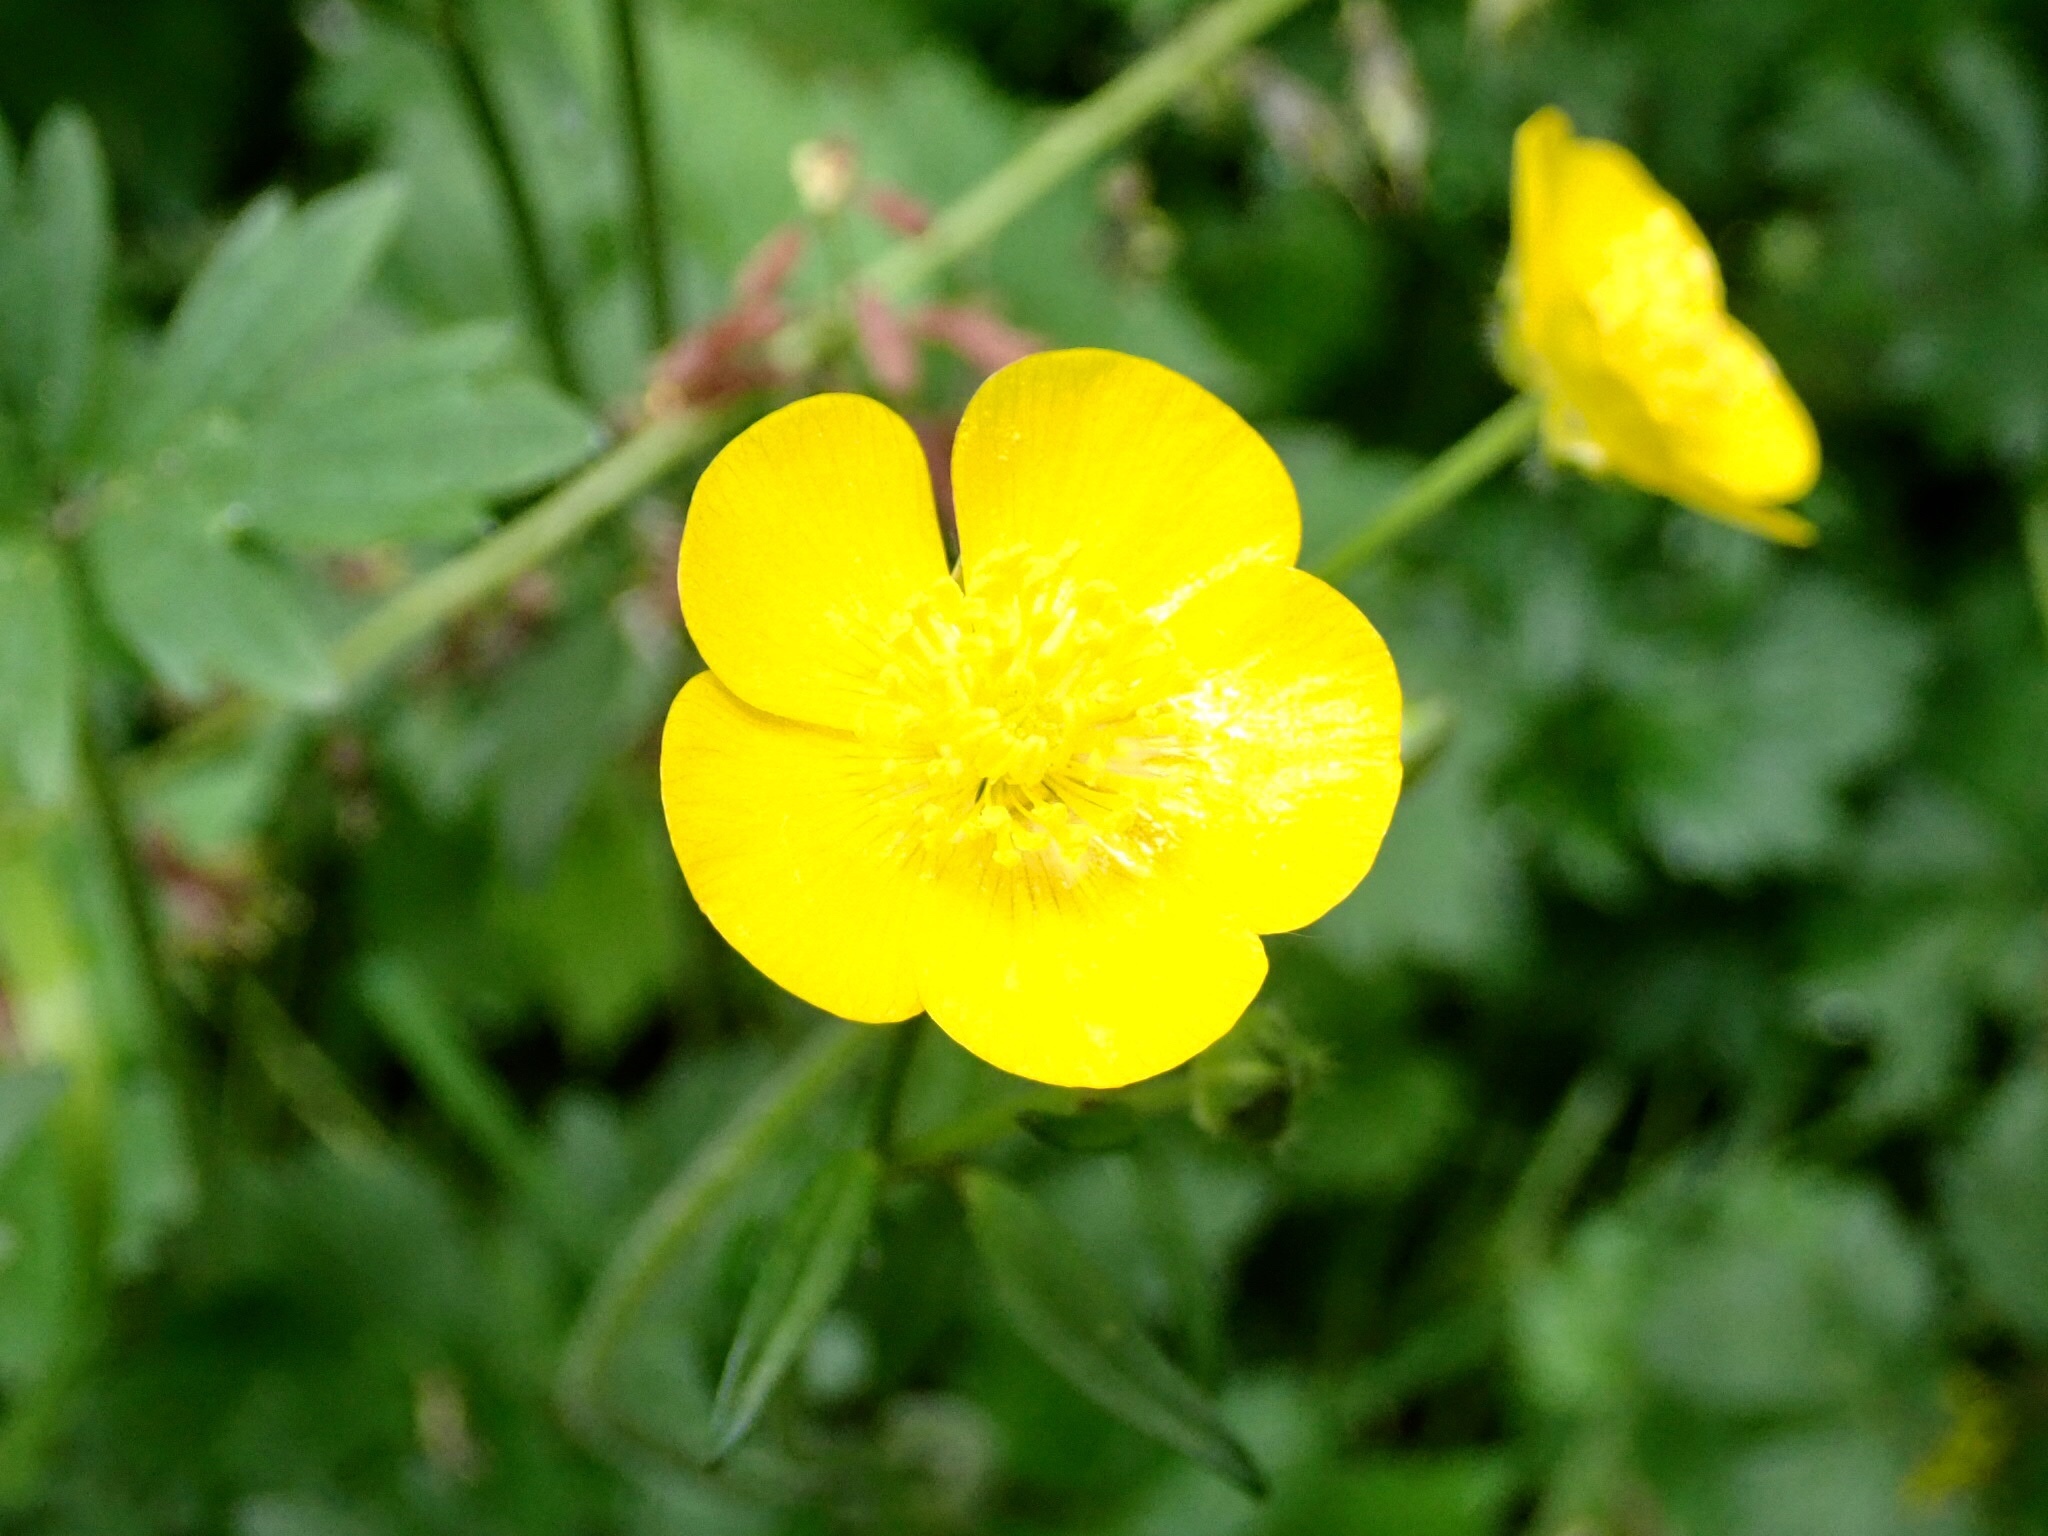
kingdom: Plantae
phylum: Tracheophyta
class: Magnoliopsida
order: Ranunculales
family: Ranunculaceae
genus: Ranunculus
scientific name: Ranunculus repens
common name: Creeping buttercup
